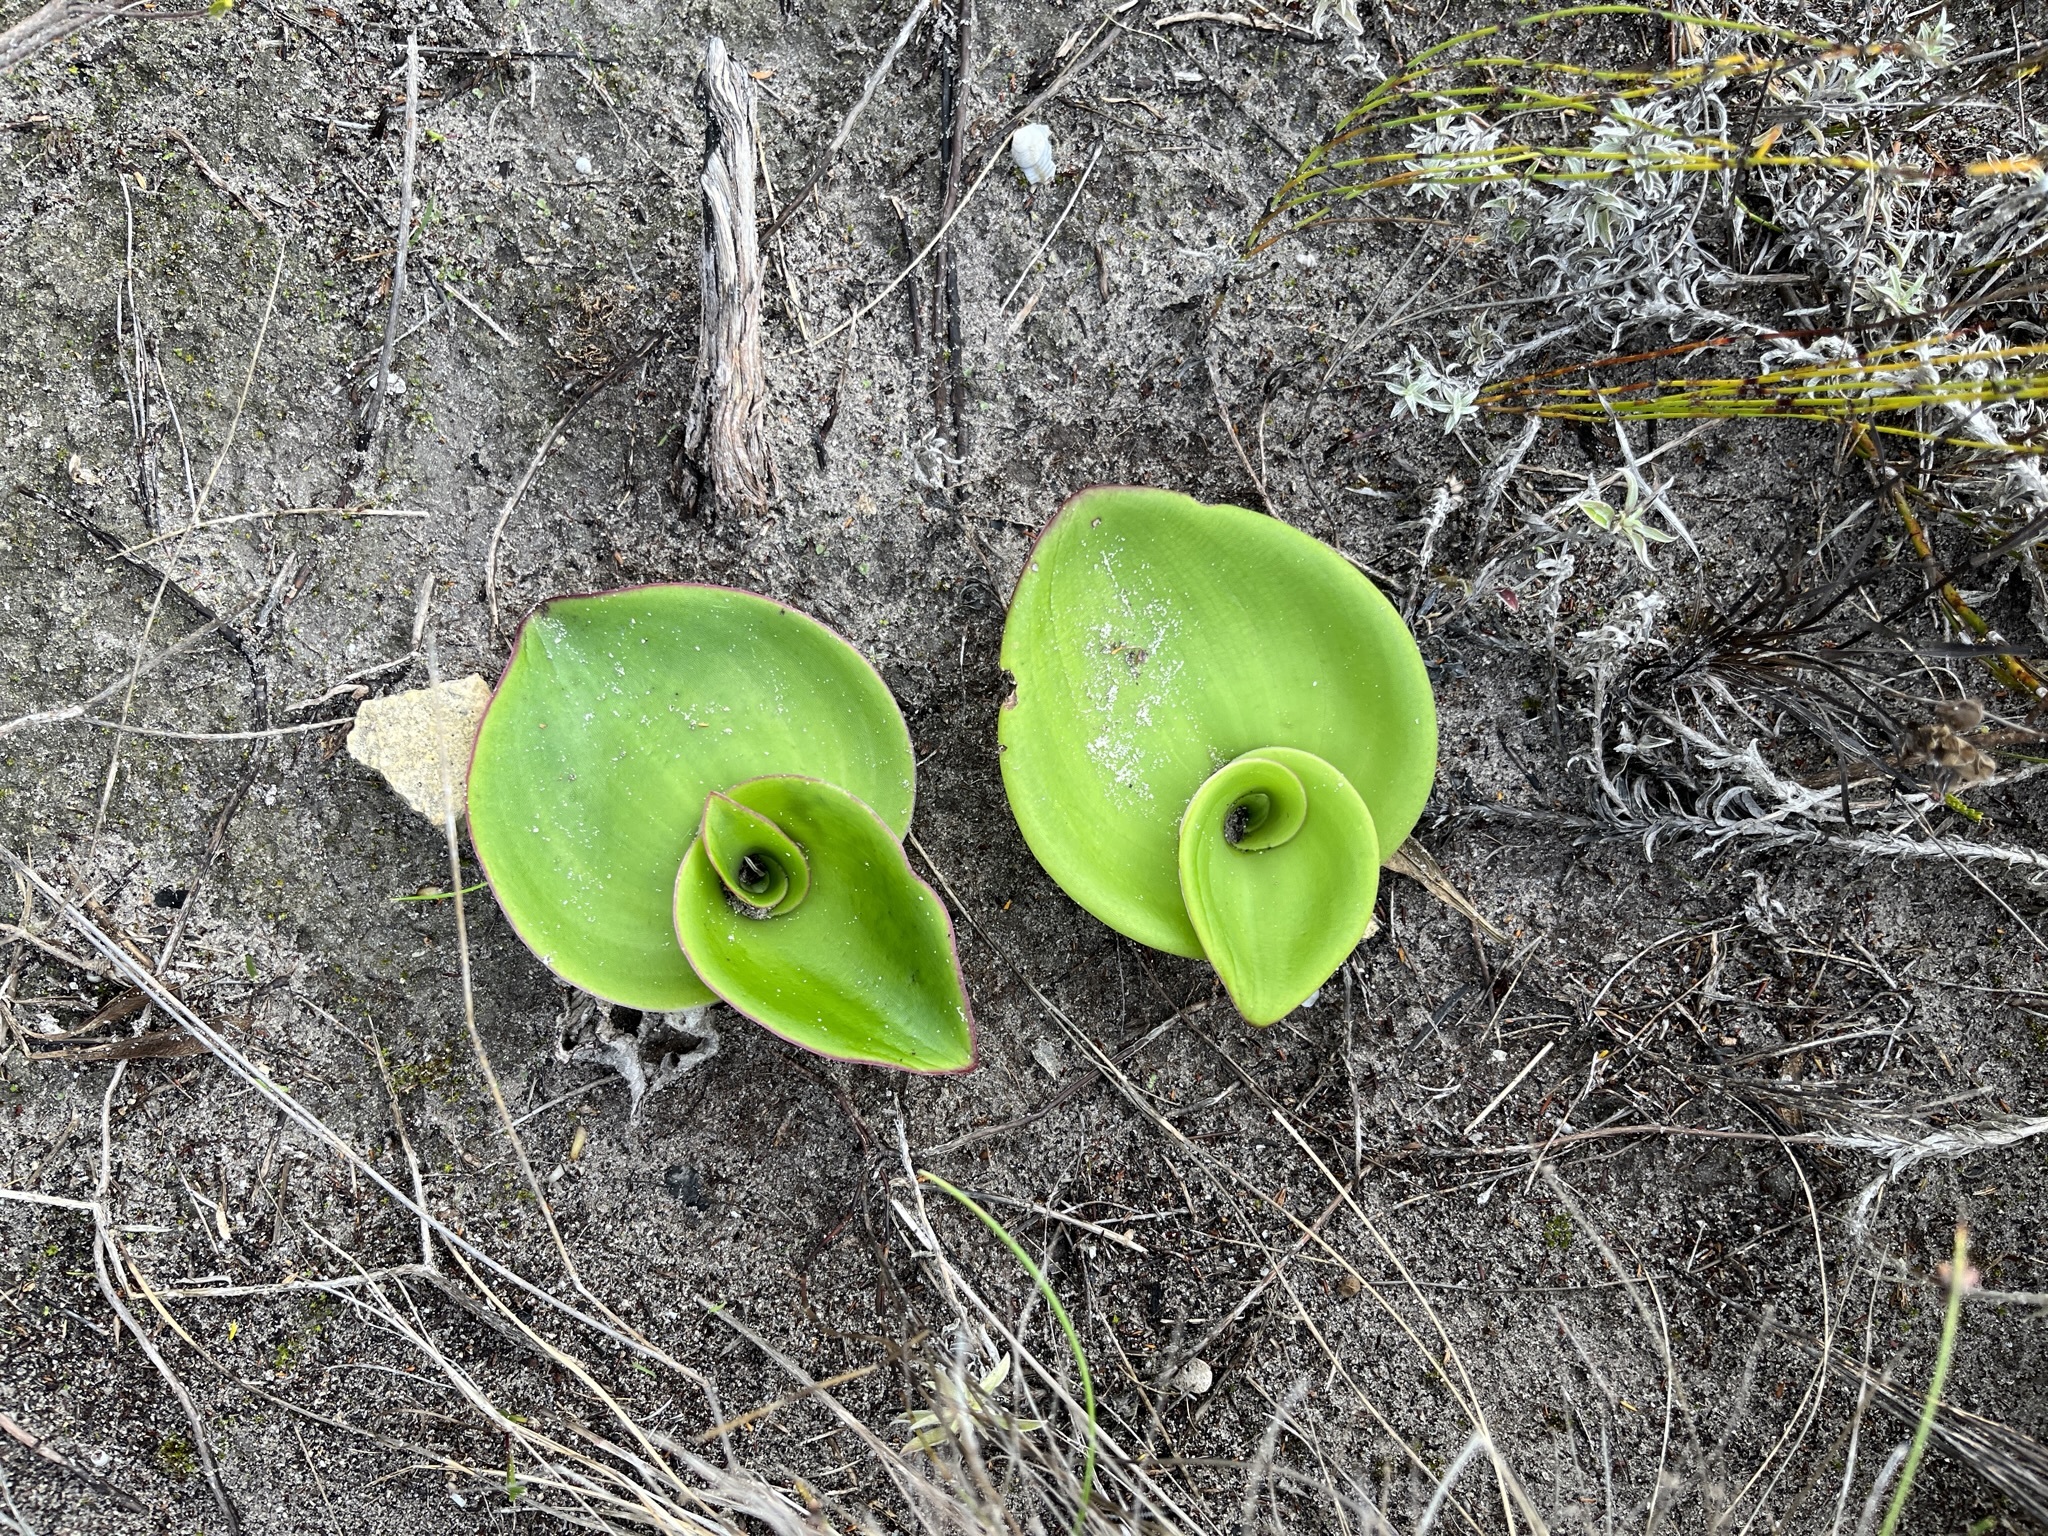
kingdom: Plantae
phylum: Tracheophyta
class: Liliopsida
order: Asparagales
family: Orchidaceae
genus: Satyrium
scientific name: Satyrium carneum
